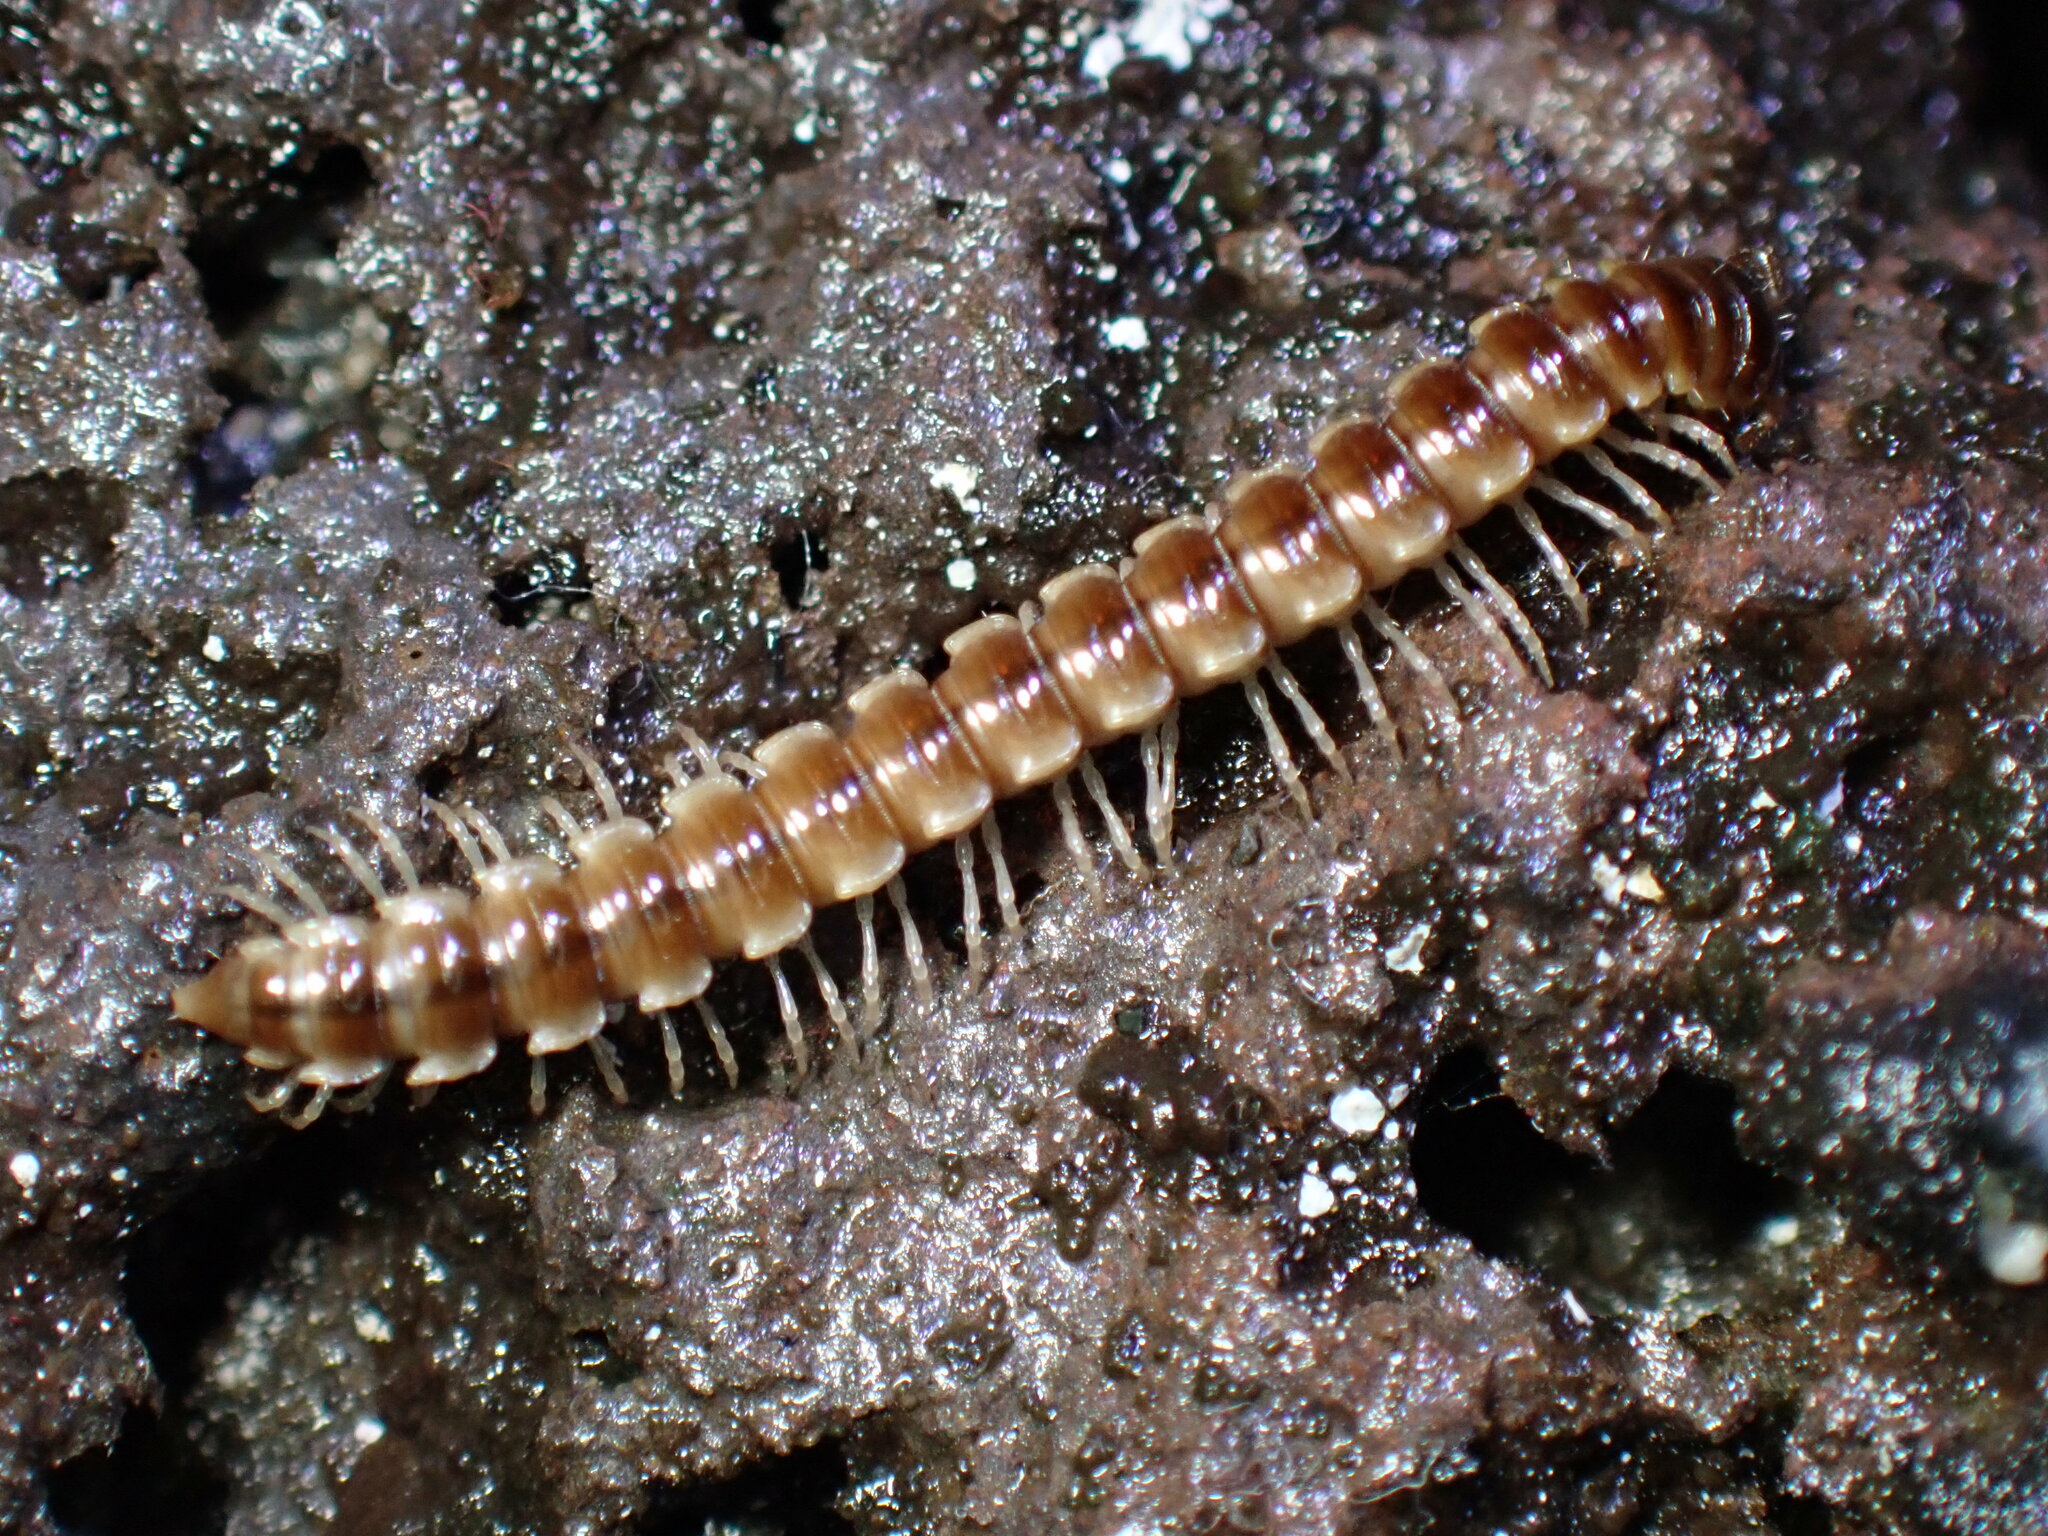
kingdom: Animalia
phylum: Arthropoda
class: Diplopoda
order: Polydesmida
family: Paradoxosomatidae
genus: Oxidus
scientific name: Oxidus gracilis
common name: Greenhouse millipede
